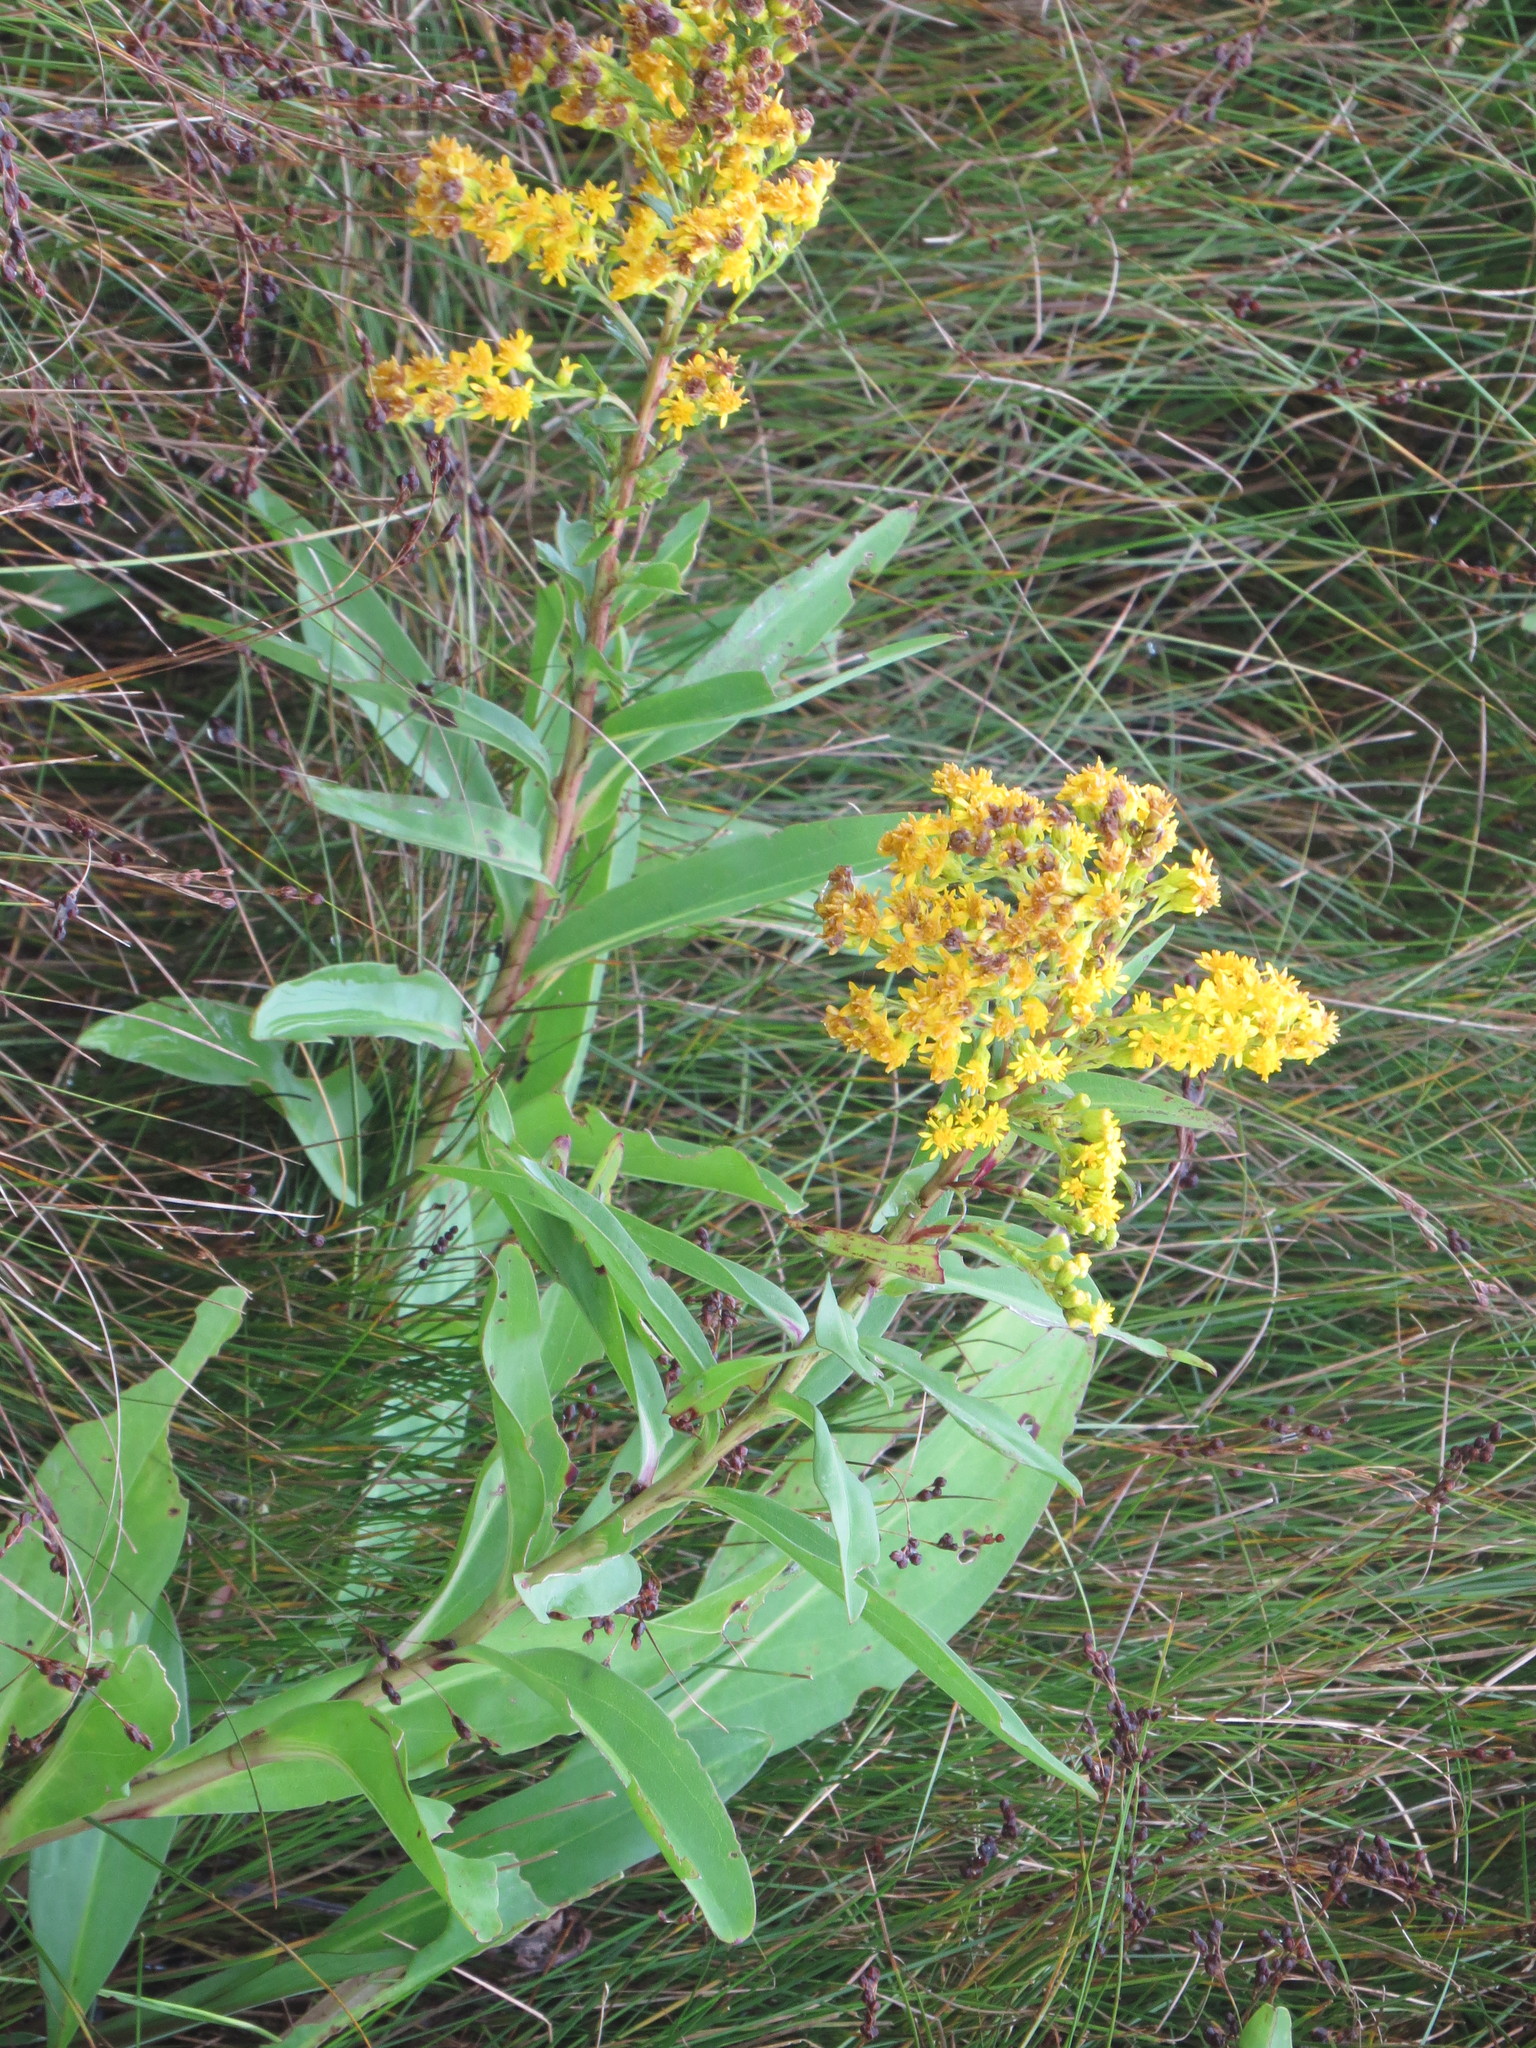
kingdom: Plantae
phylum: Tracheophyta
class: Magnoliopsida
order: Asterales
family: Asteraceae
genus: Solidago
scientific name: Solidago sempervirens
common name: Salt-marsh goldenrod
